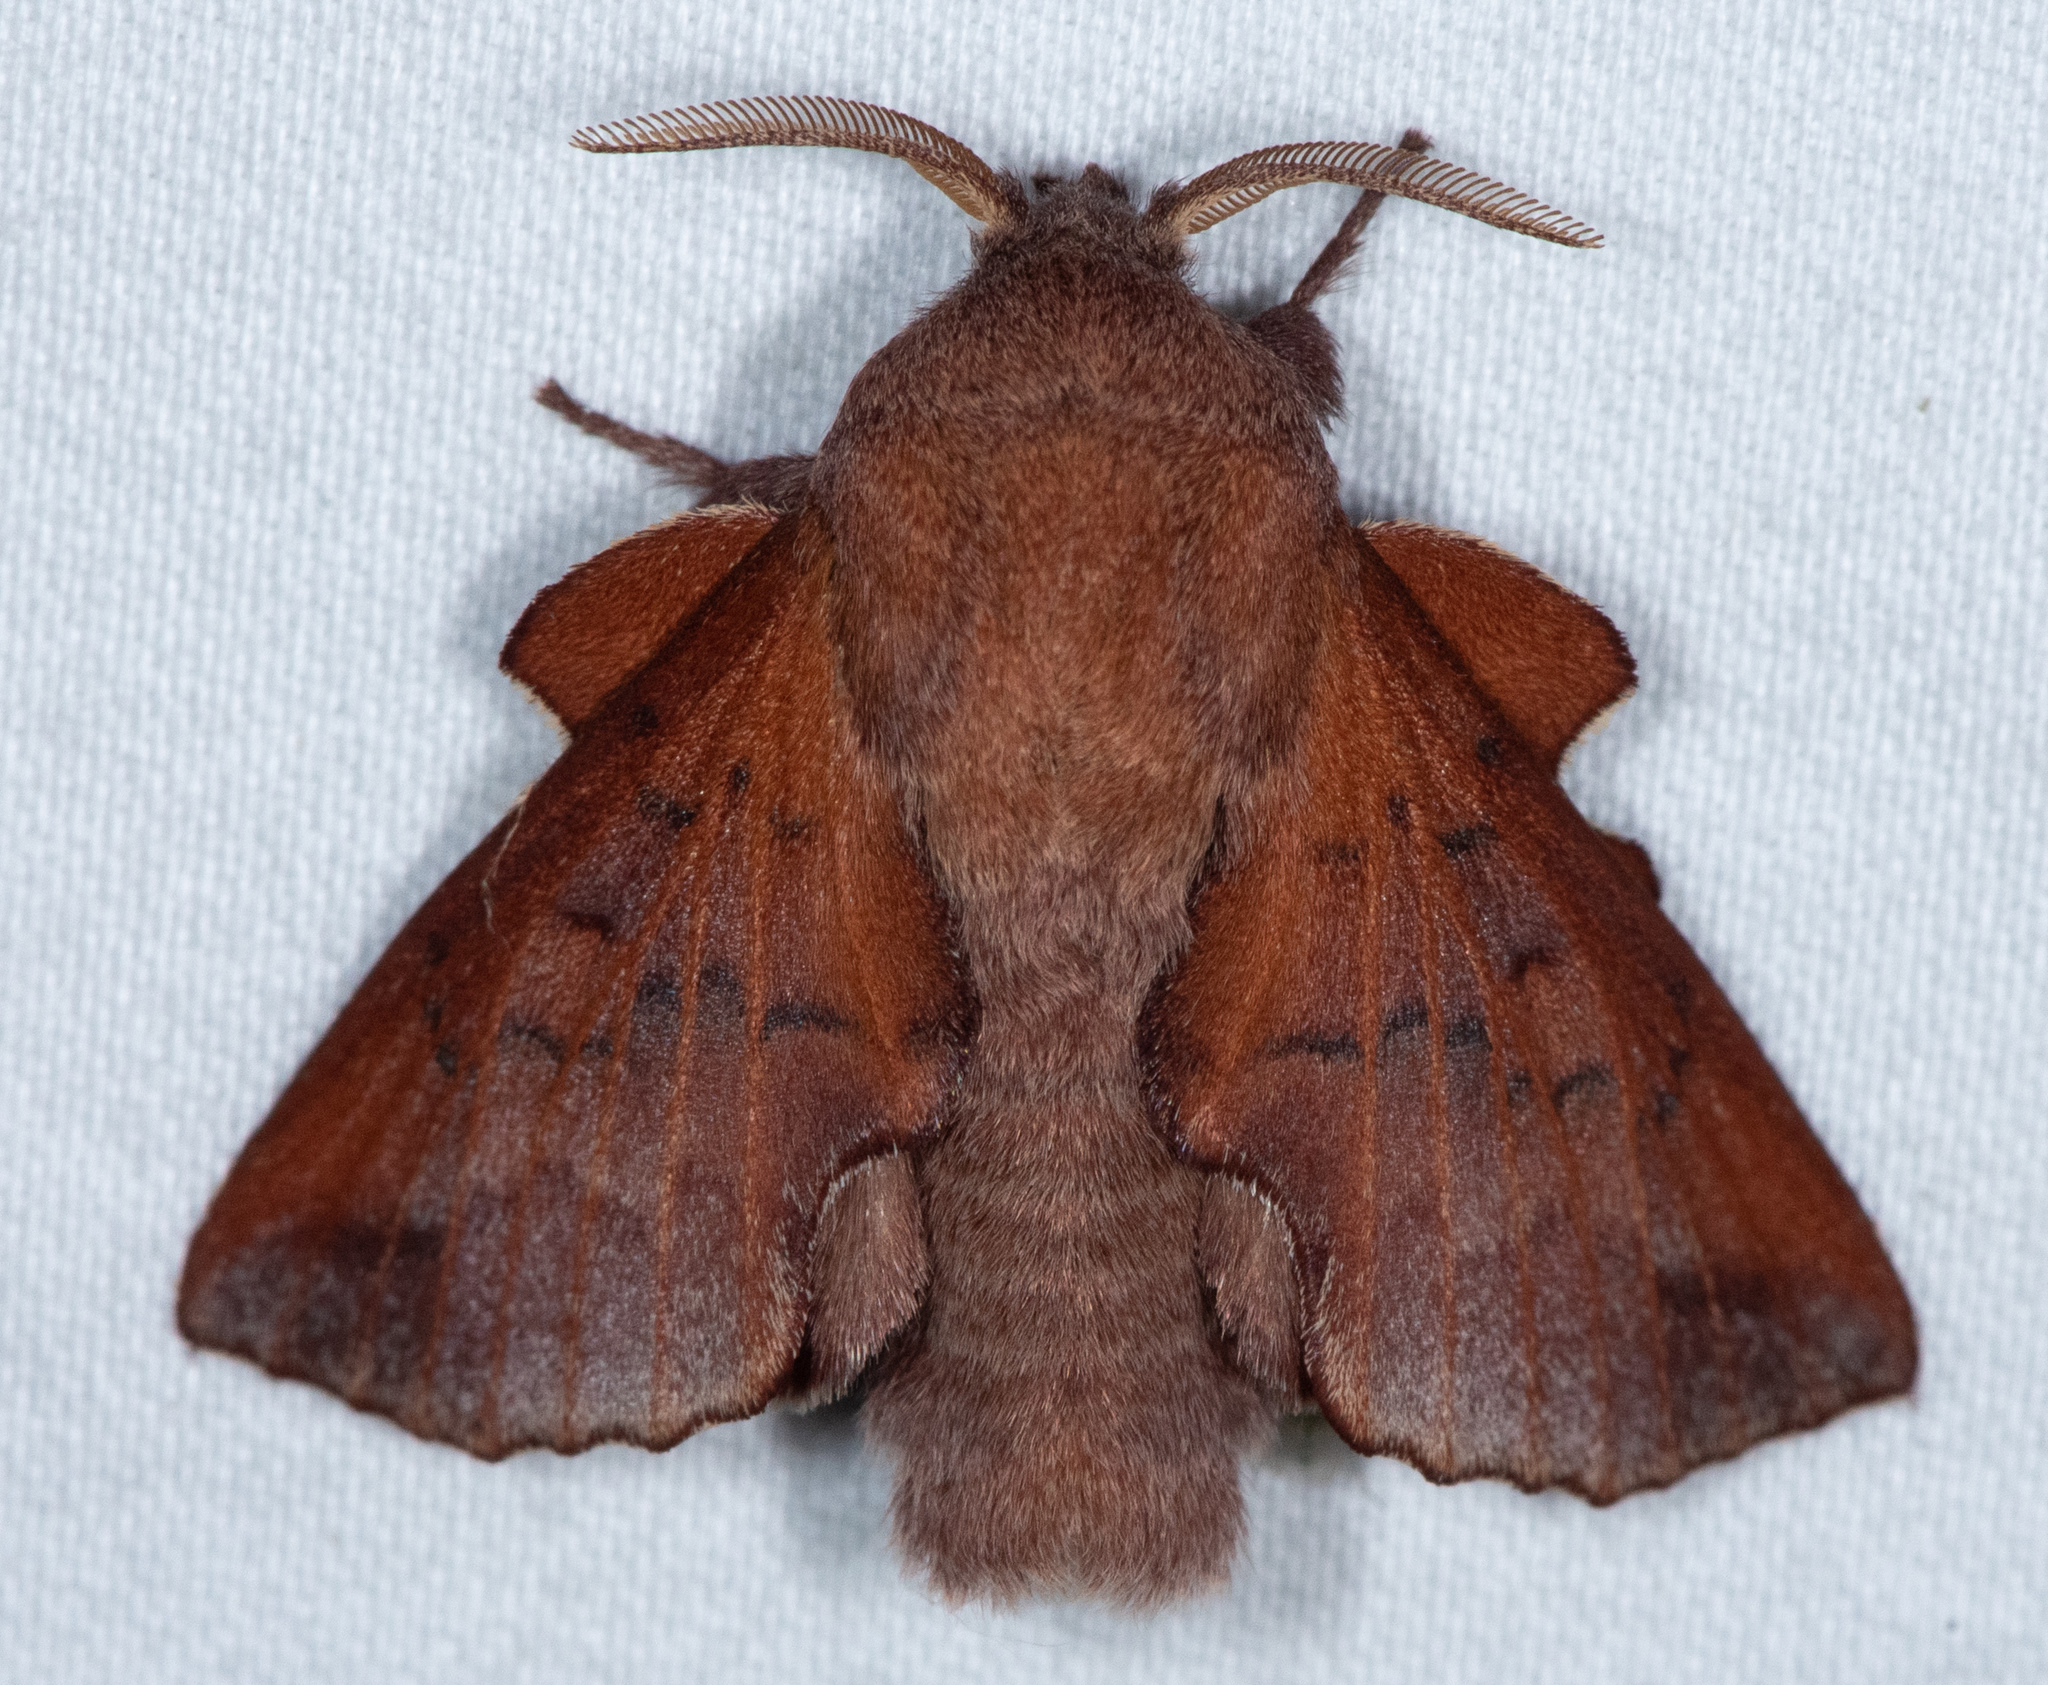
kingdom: Animalia
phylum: Arthropoda
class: Insecta
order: Lepidoptera
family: Lasiocampidae
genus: Phyllodesma
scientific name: Phyllodesma americana
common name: American lappet moth
